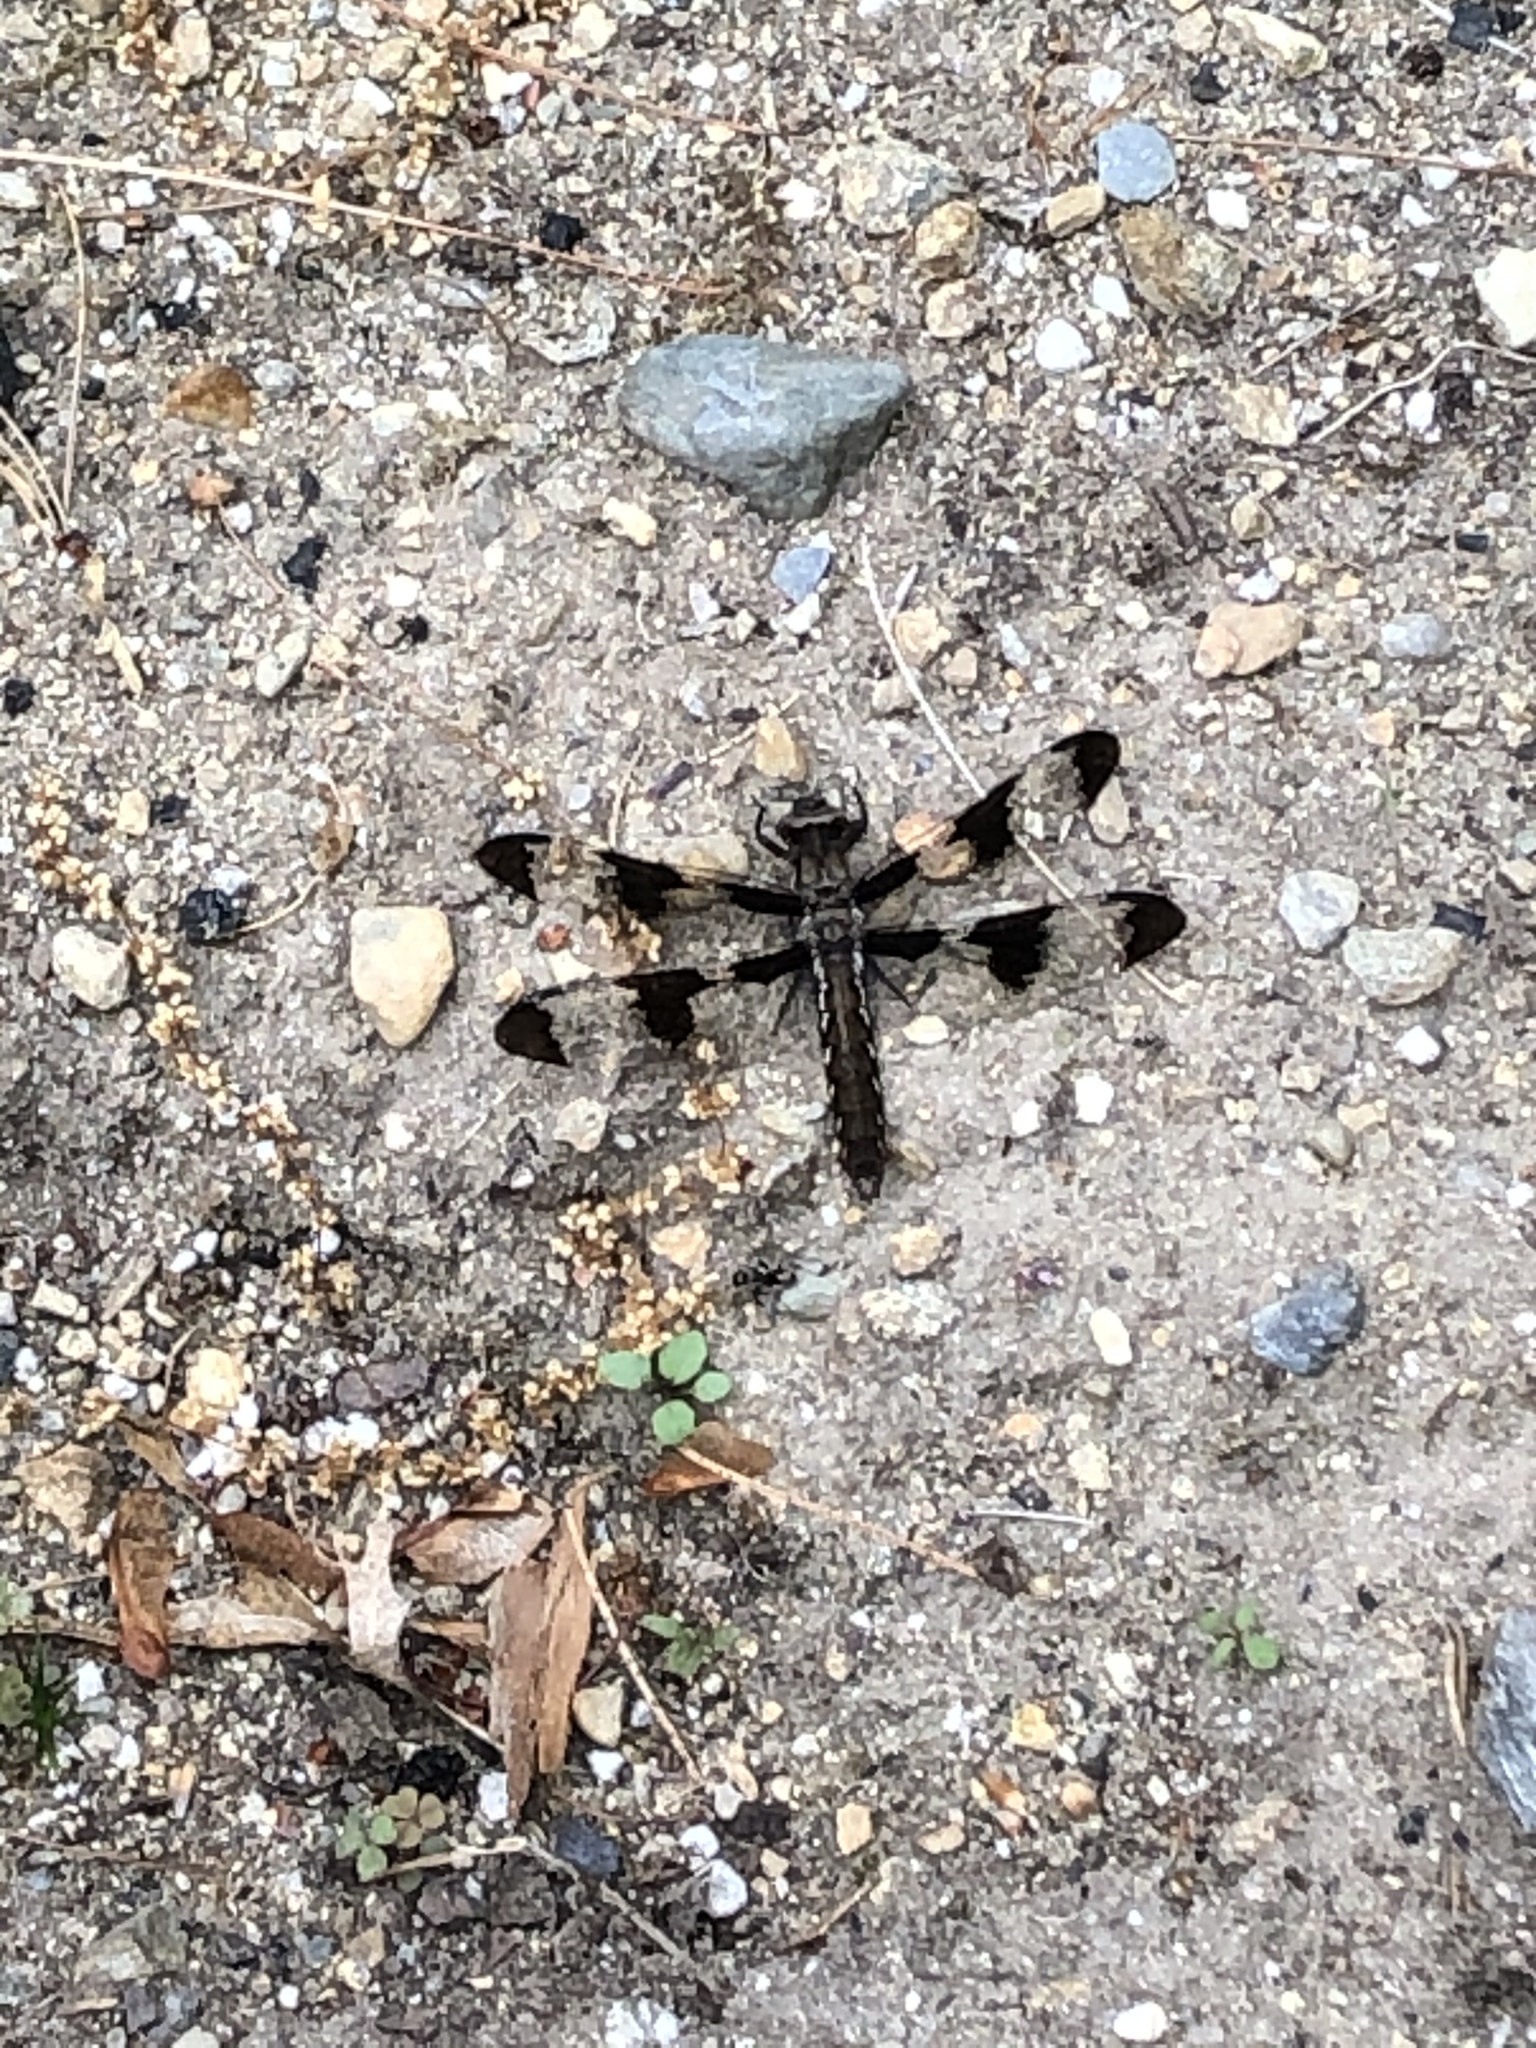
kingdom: Animalia
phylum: Arthropoda
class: Insecta
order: Odonata
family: Libellulidae
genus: Plathemis
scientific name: Plathemis lydia
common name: Common whitetail
